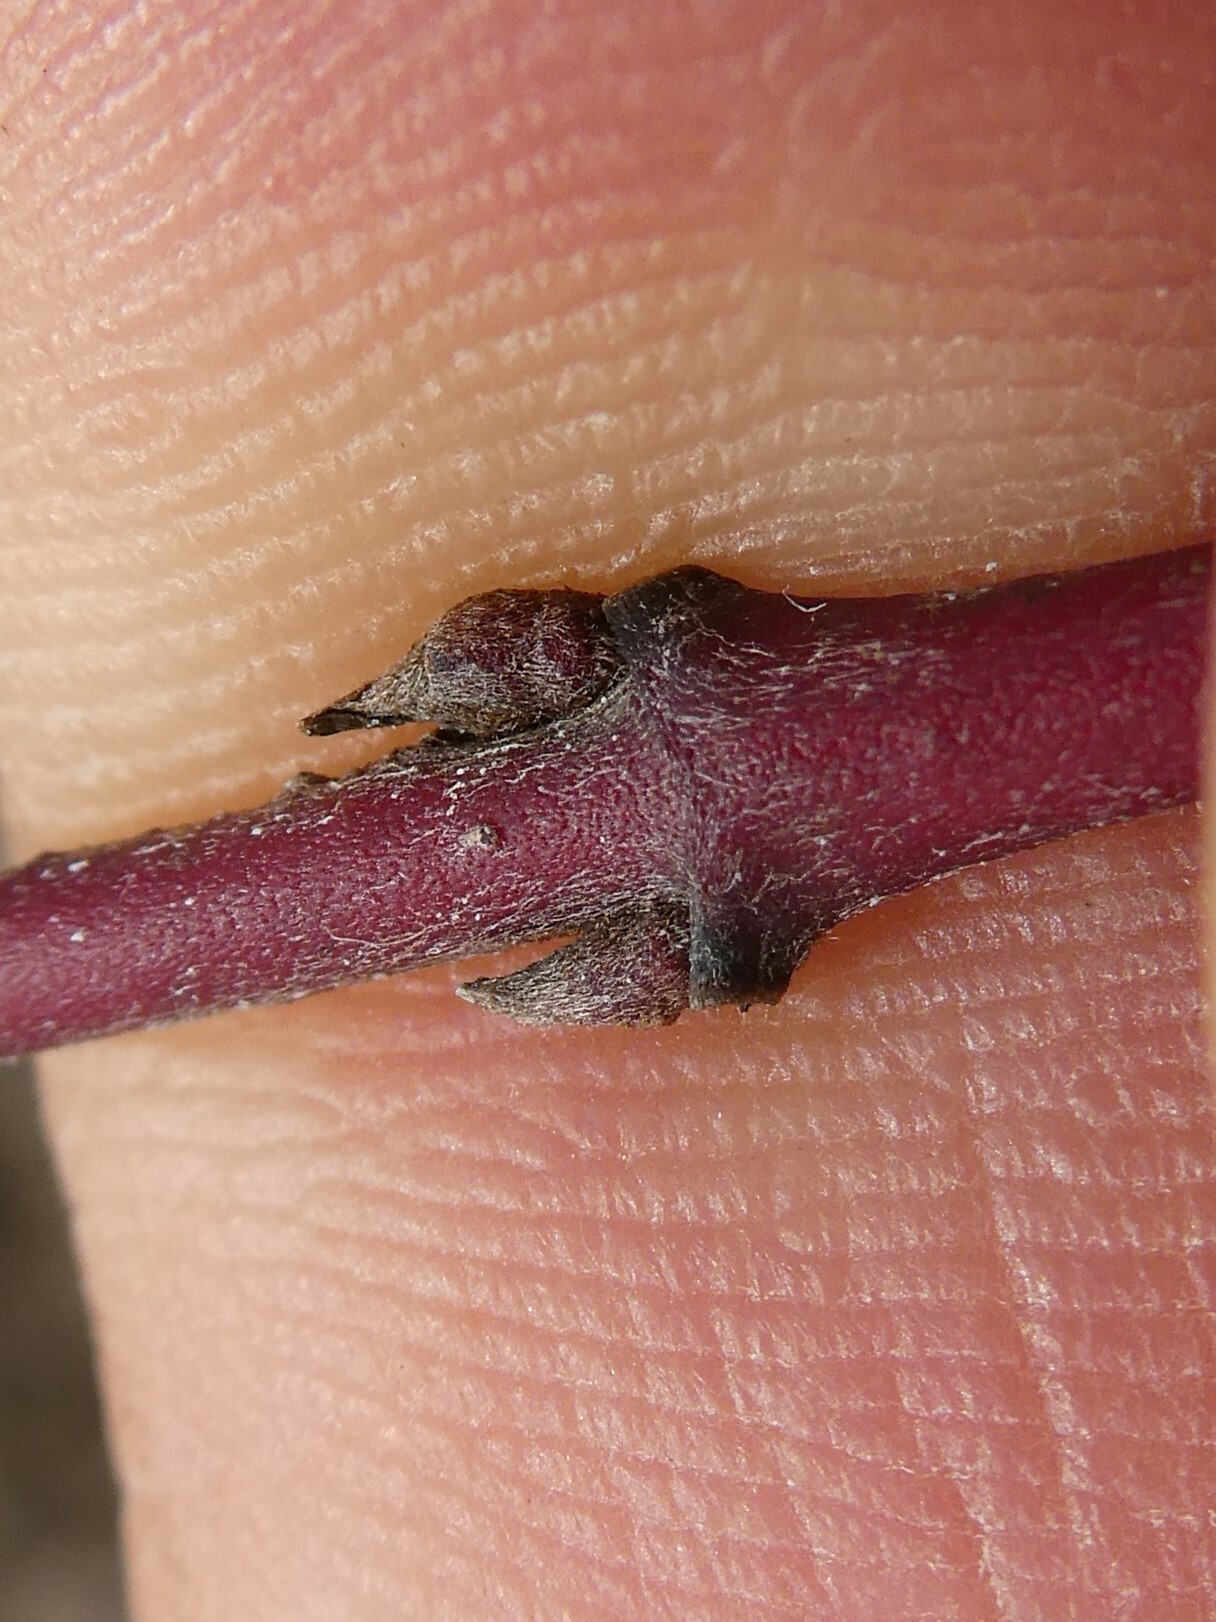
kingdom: Plantae
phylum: Tracheophyta
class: Magnoliopsida
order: Cornales
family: Cornaceae
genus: Cornus
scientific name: Cornus amomum
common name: Silky dogwood
